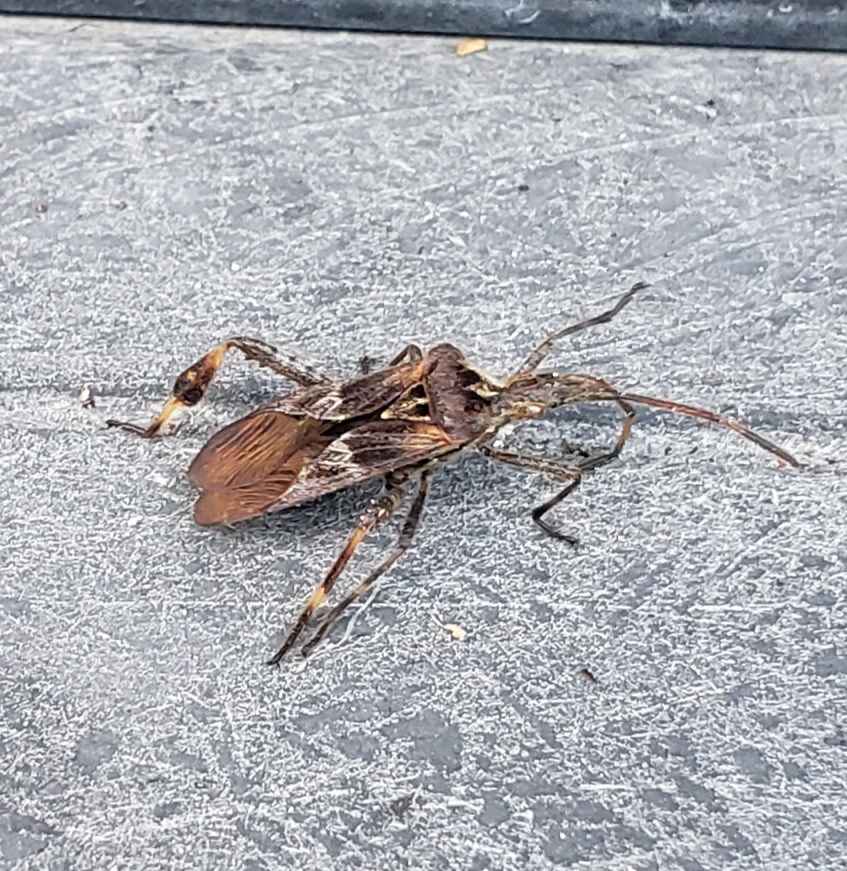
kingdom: Animalia
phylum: Arthropoda
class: Insecta
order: Hemiptera
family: Coreidae
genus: Leptoglossus
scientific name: Leptoglossus occidentalis
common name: Western conifer-seed bug
